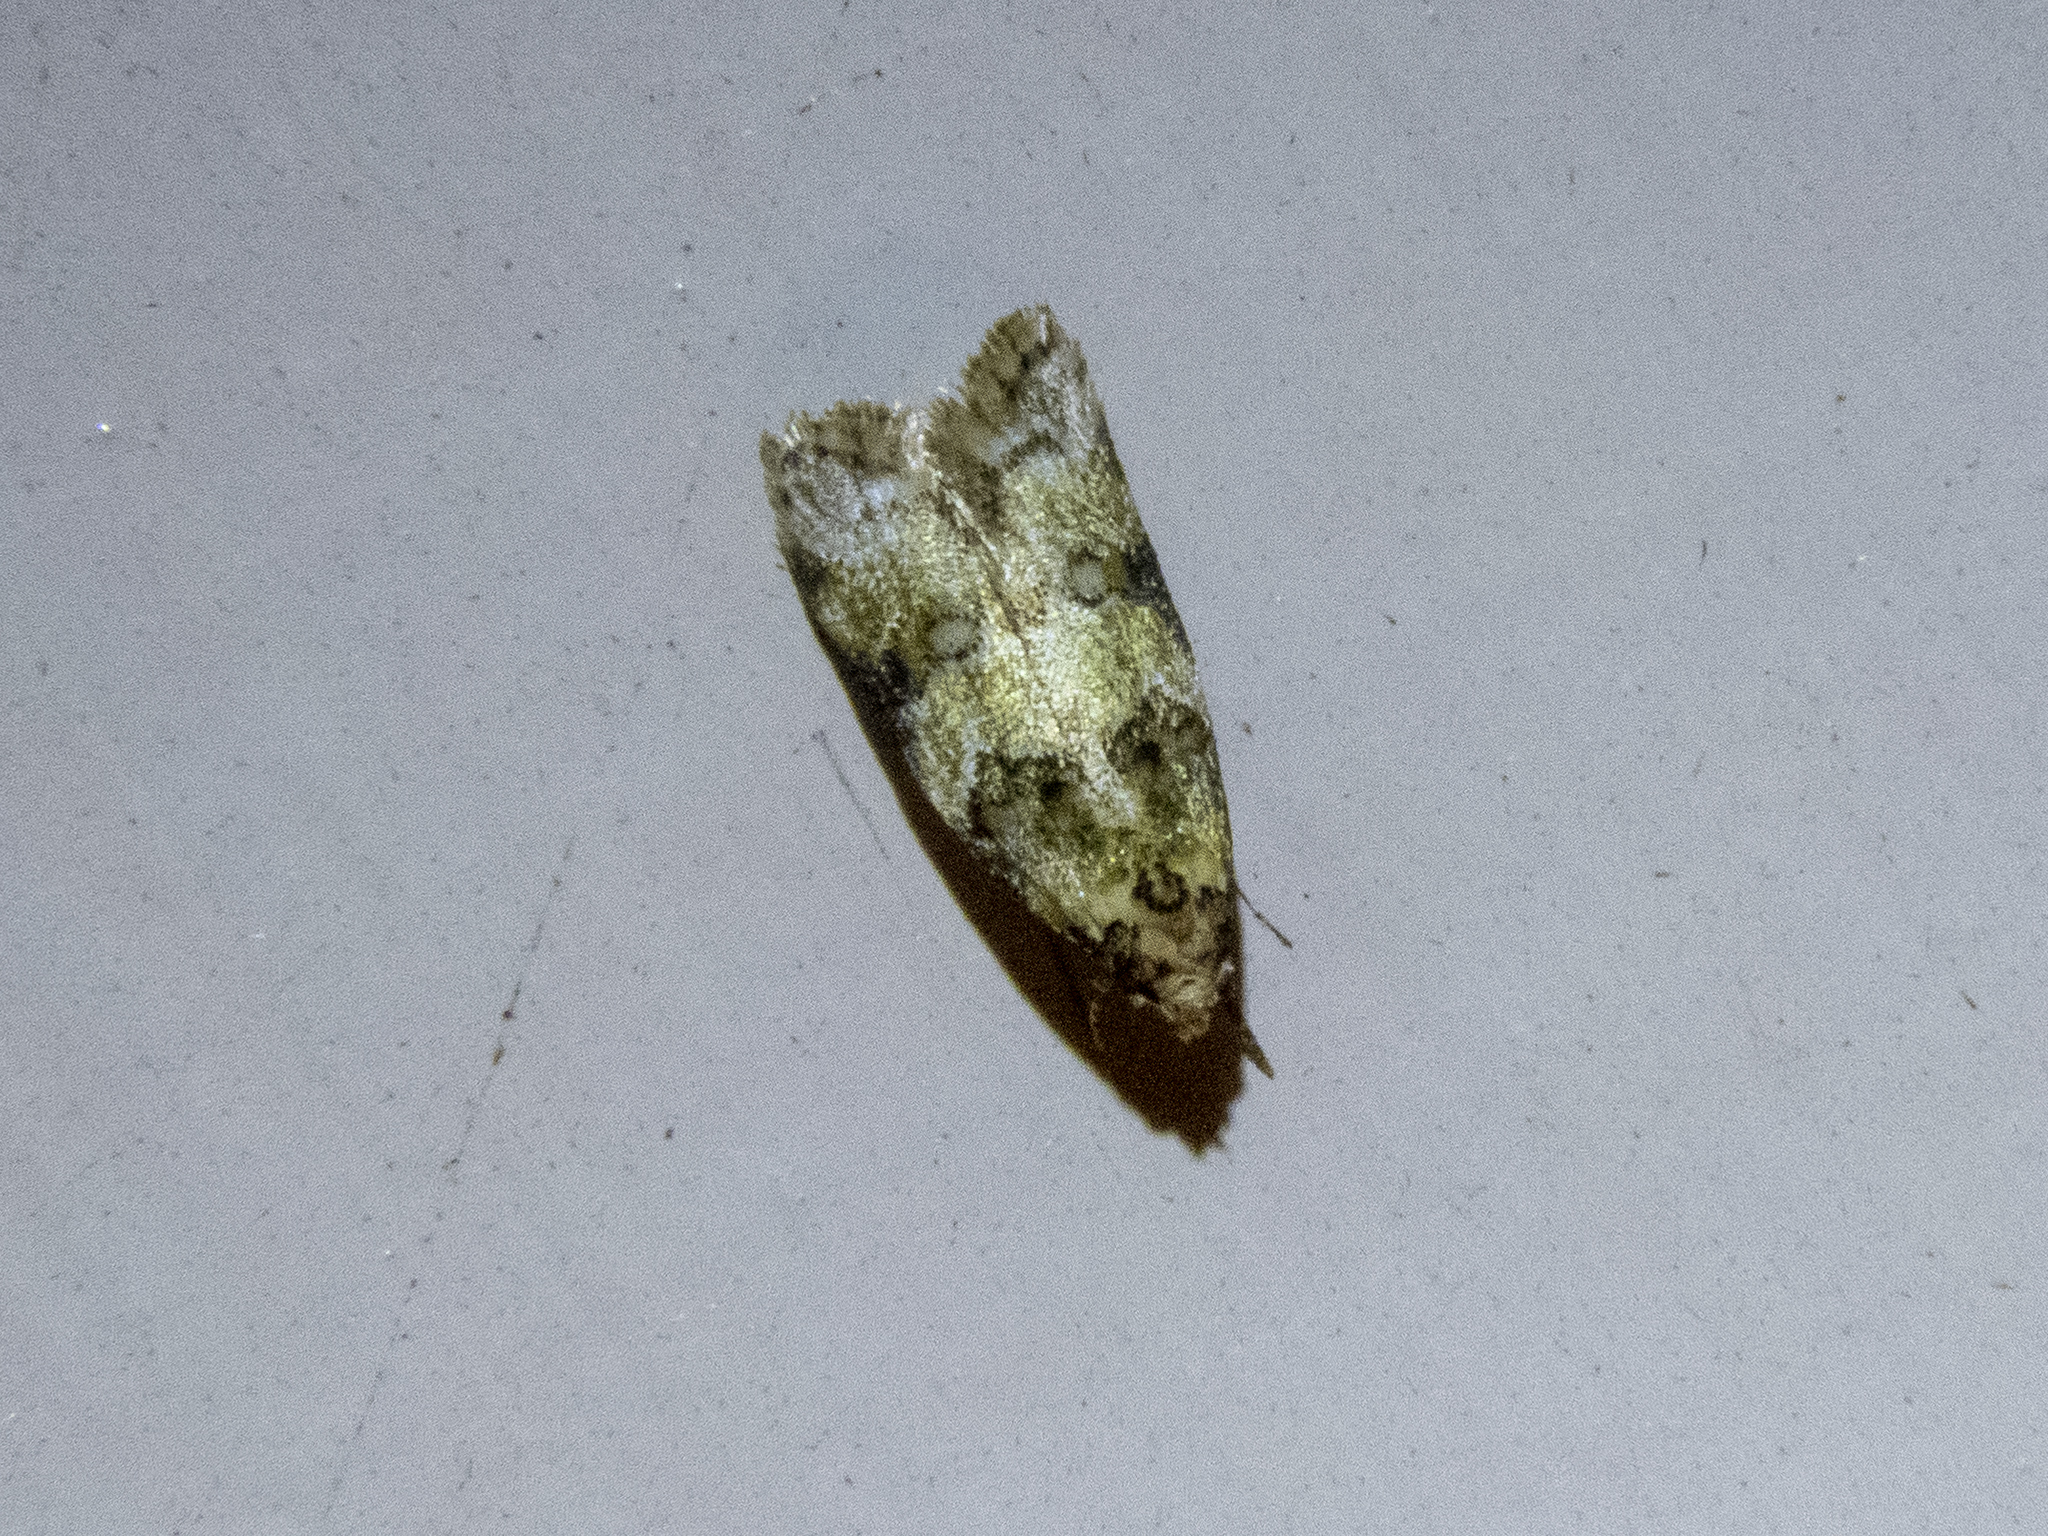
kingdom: Animalia
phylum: Arthropoda
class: Insecta
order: Lepidoptera
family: Oecophoridae
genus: Trachypepla
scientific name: Trachypepla protochlora
